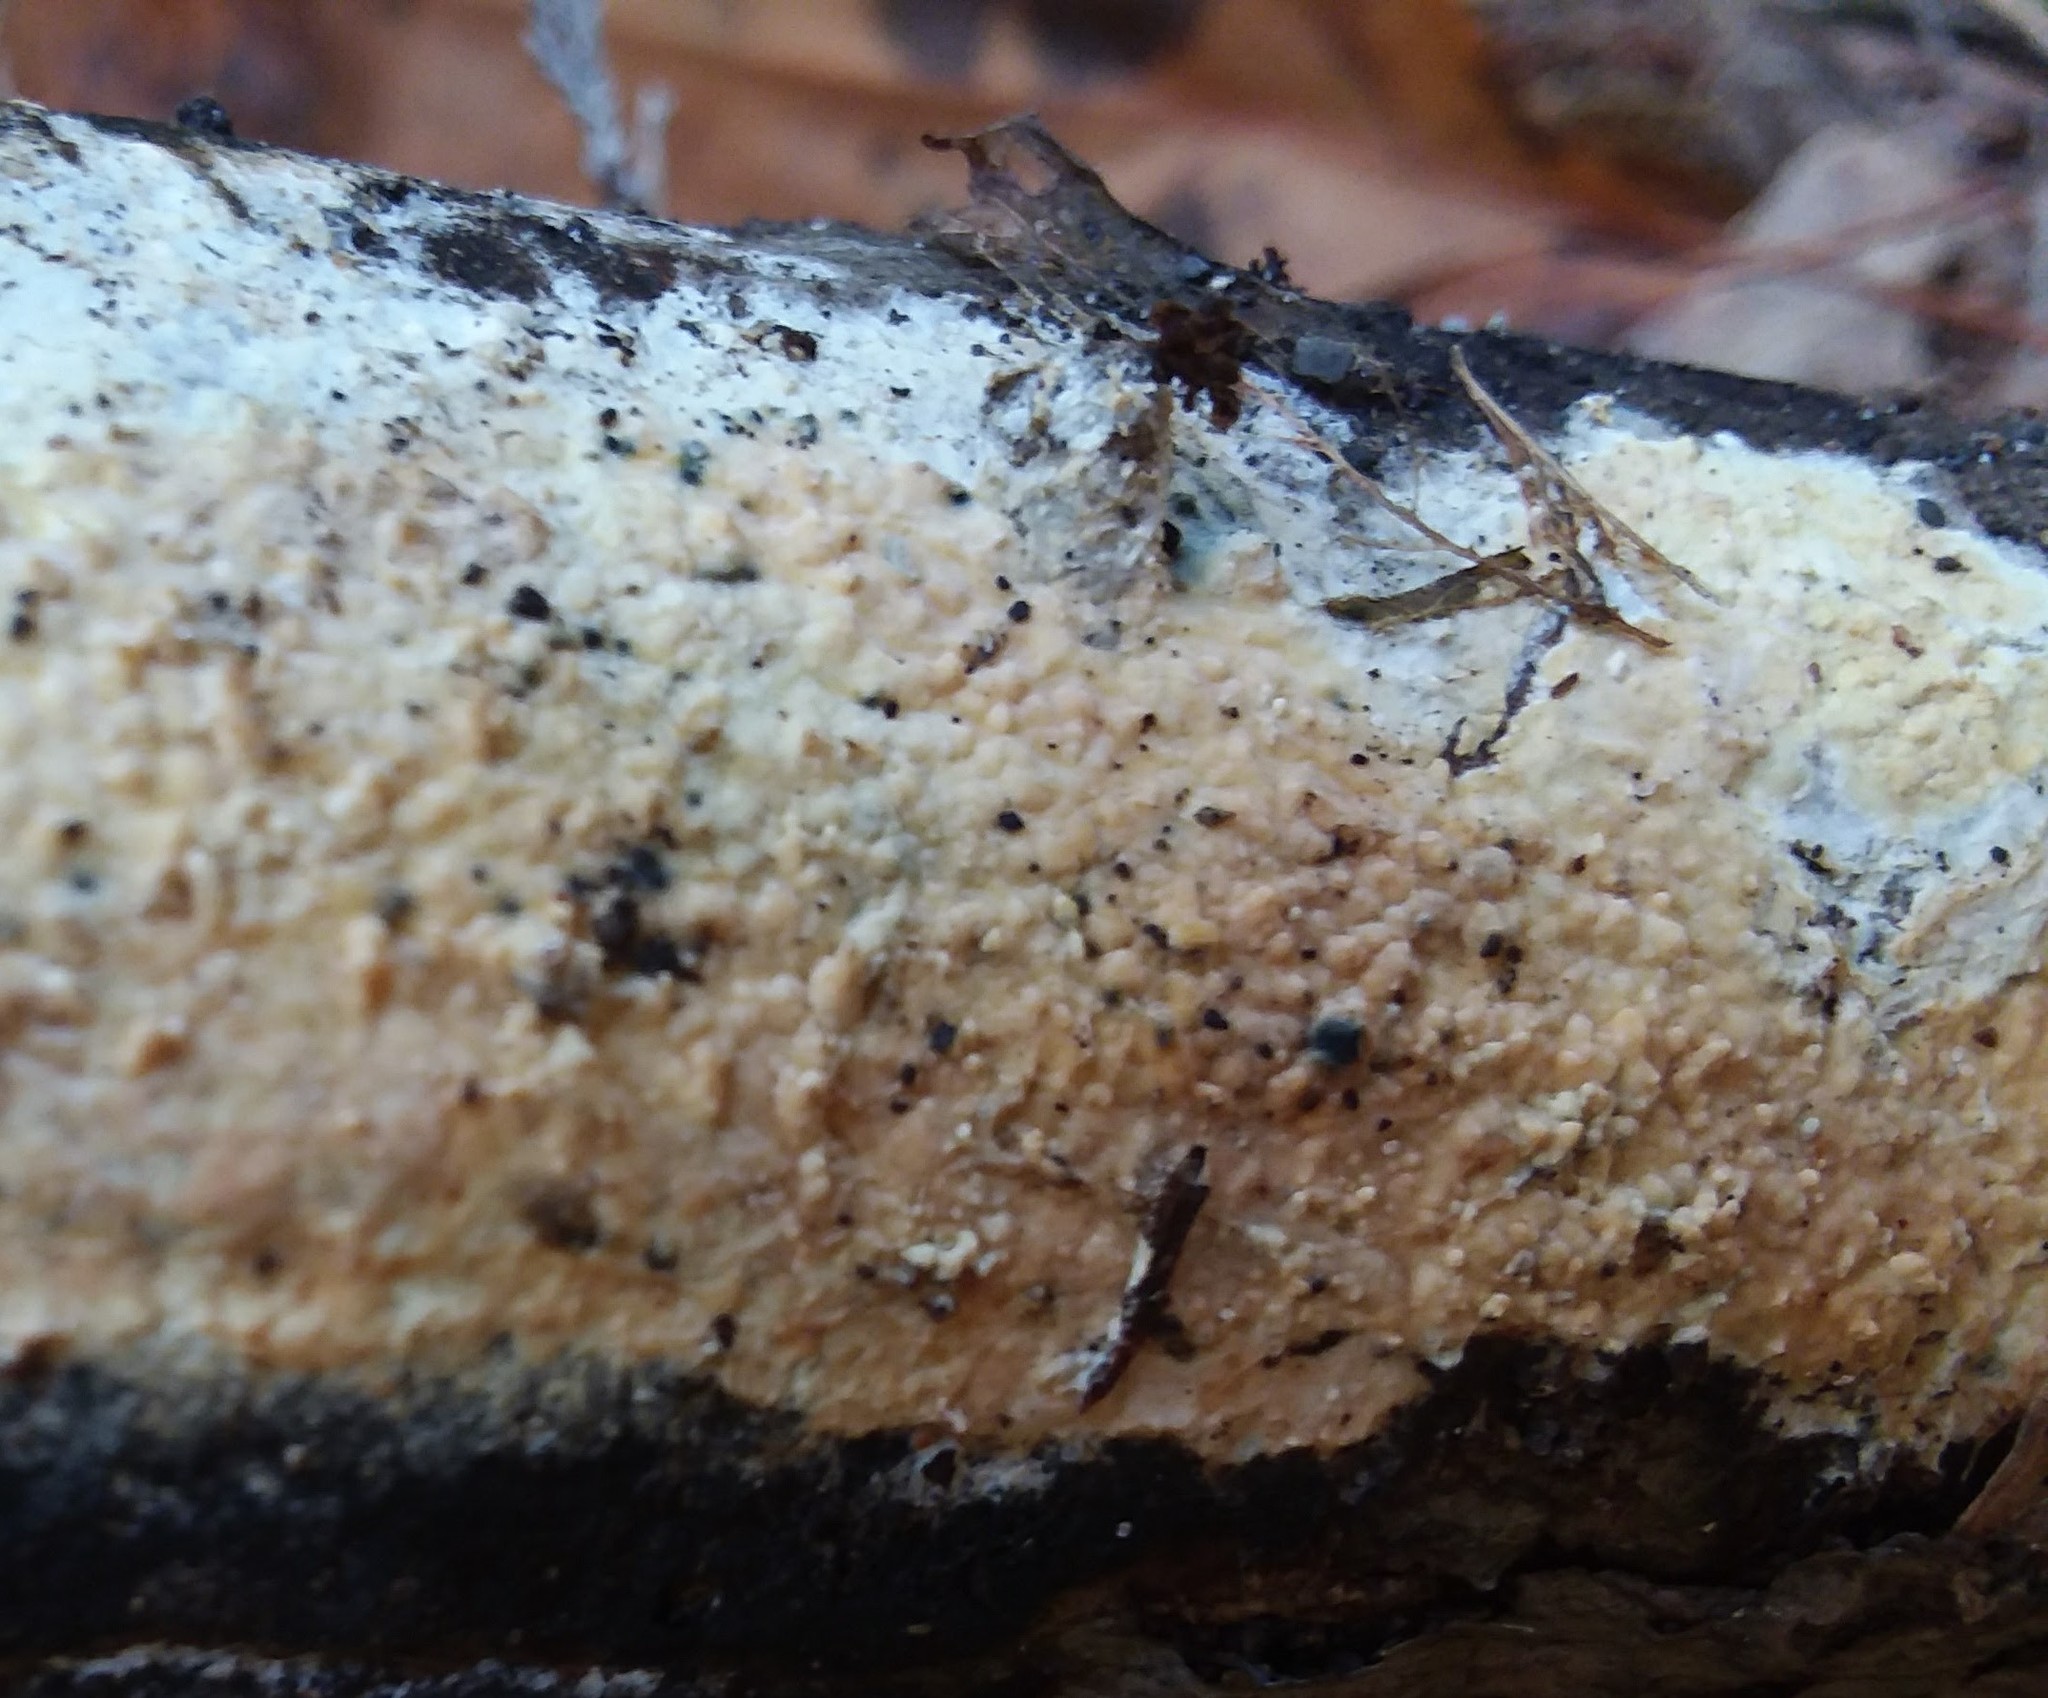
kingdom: Fungi
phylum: Basidiomycota
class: Agaricomycetes
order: Hymenochaetales
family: Schizoporaceae
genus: Xylodon
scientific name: Xylodon radula
